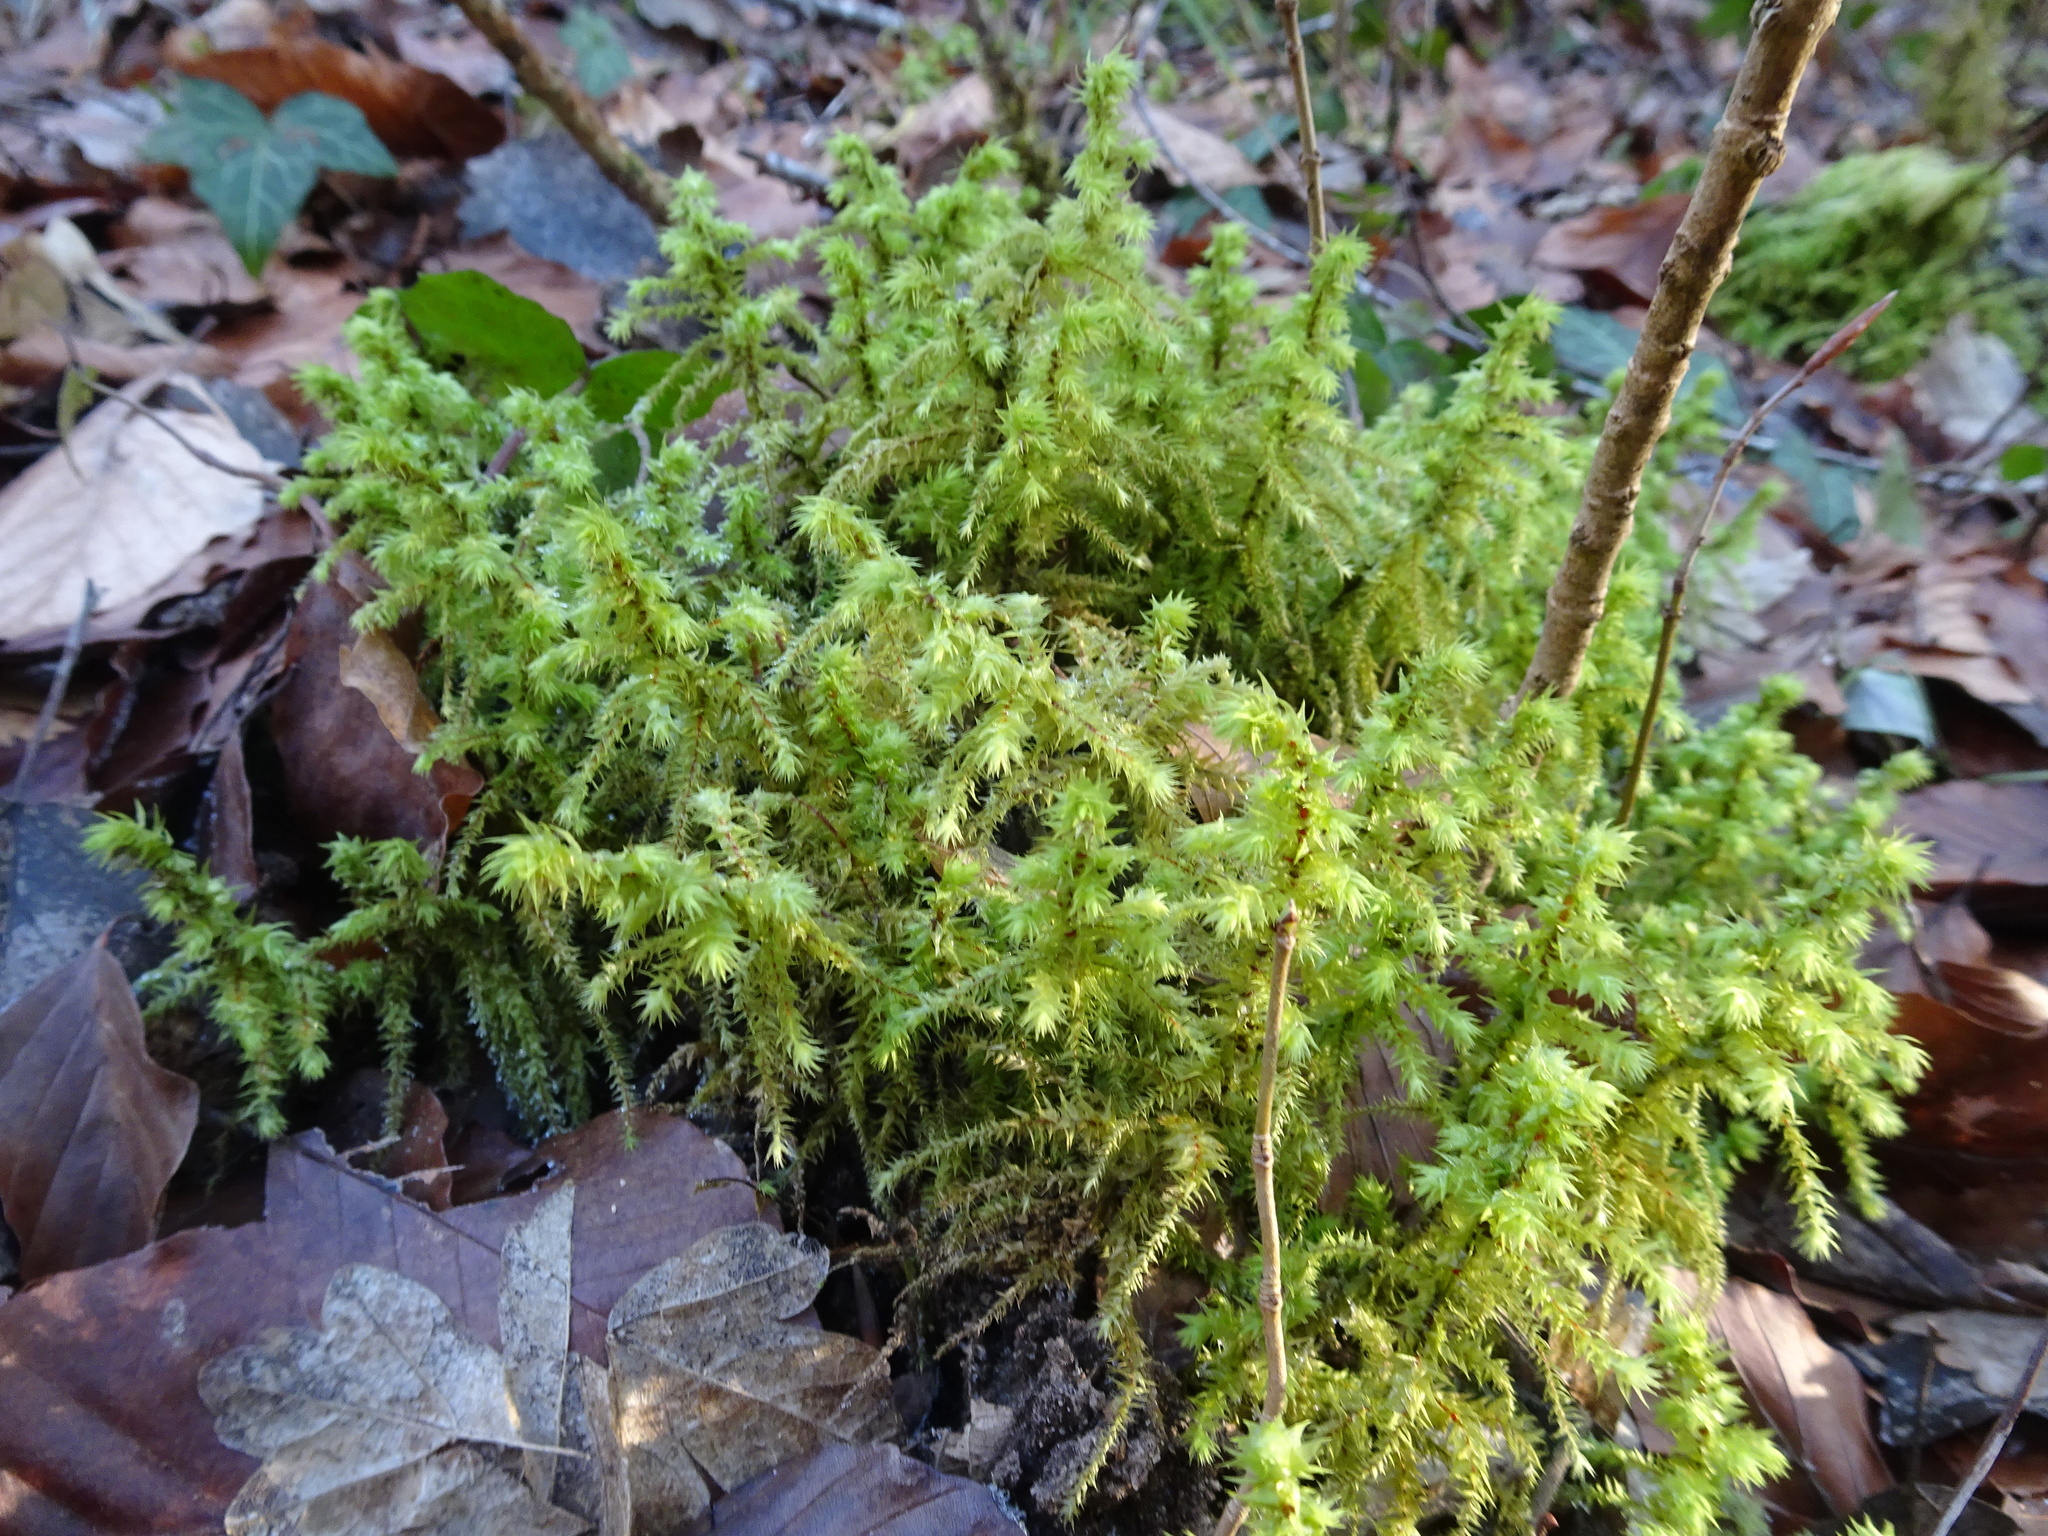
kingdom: Plantae
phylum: Bryophyta
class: Bryopsida
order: Hypnales
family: Hylocomiaceae
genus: Hylocomiadelphus
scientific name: Hylocomiadelphus triquetrus
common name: Rough goose neck moss
